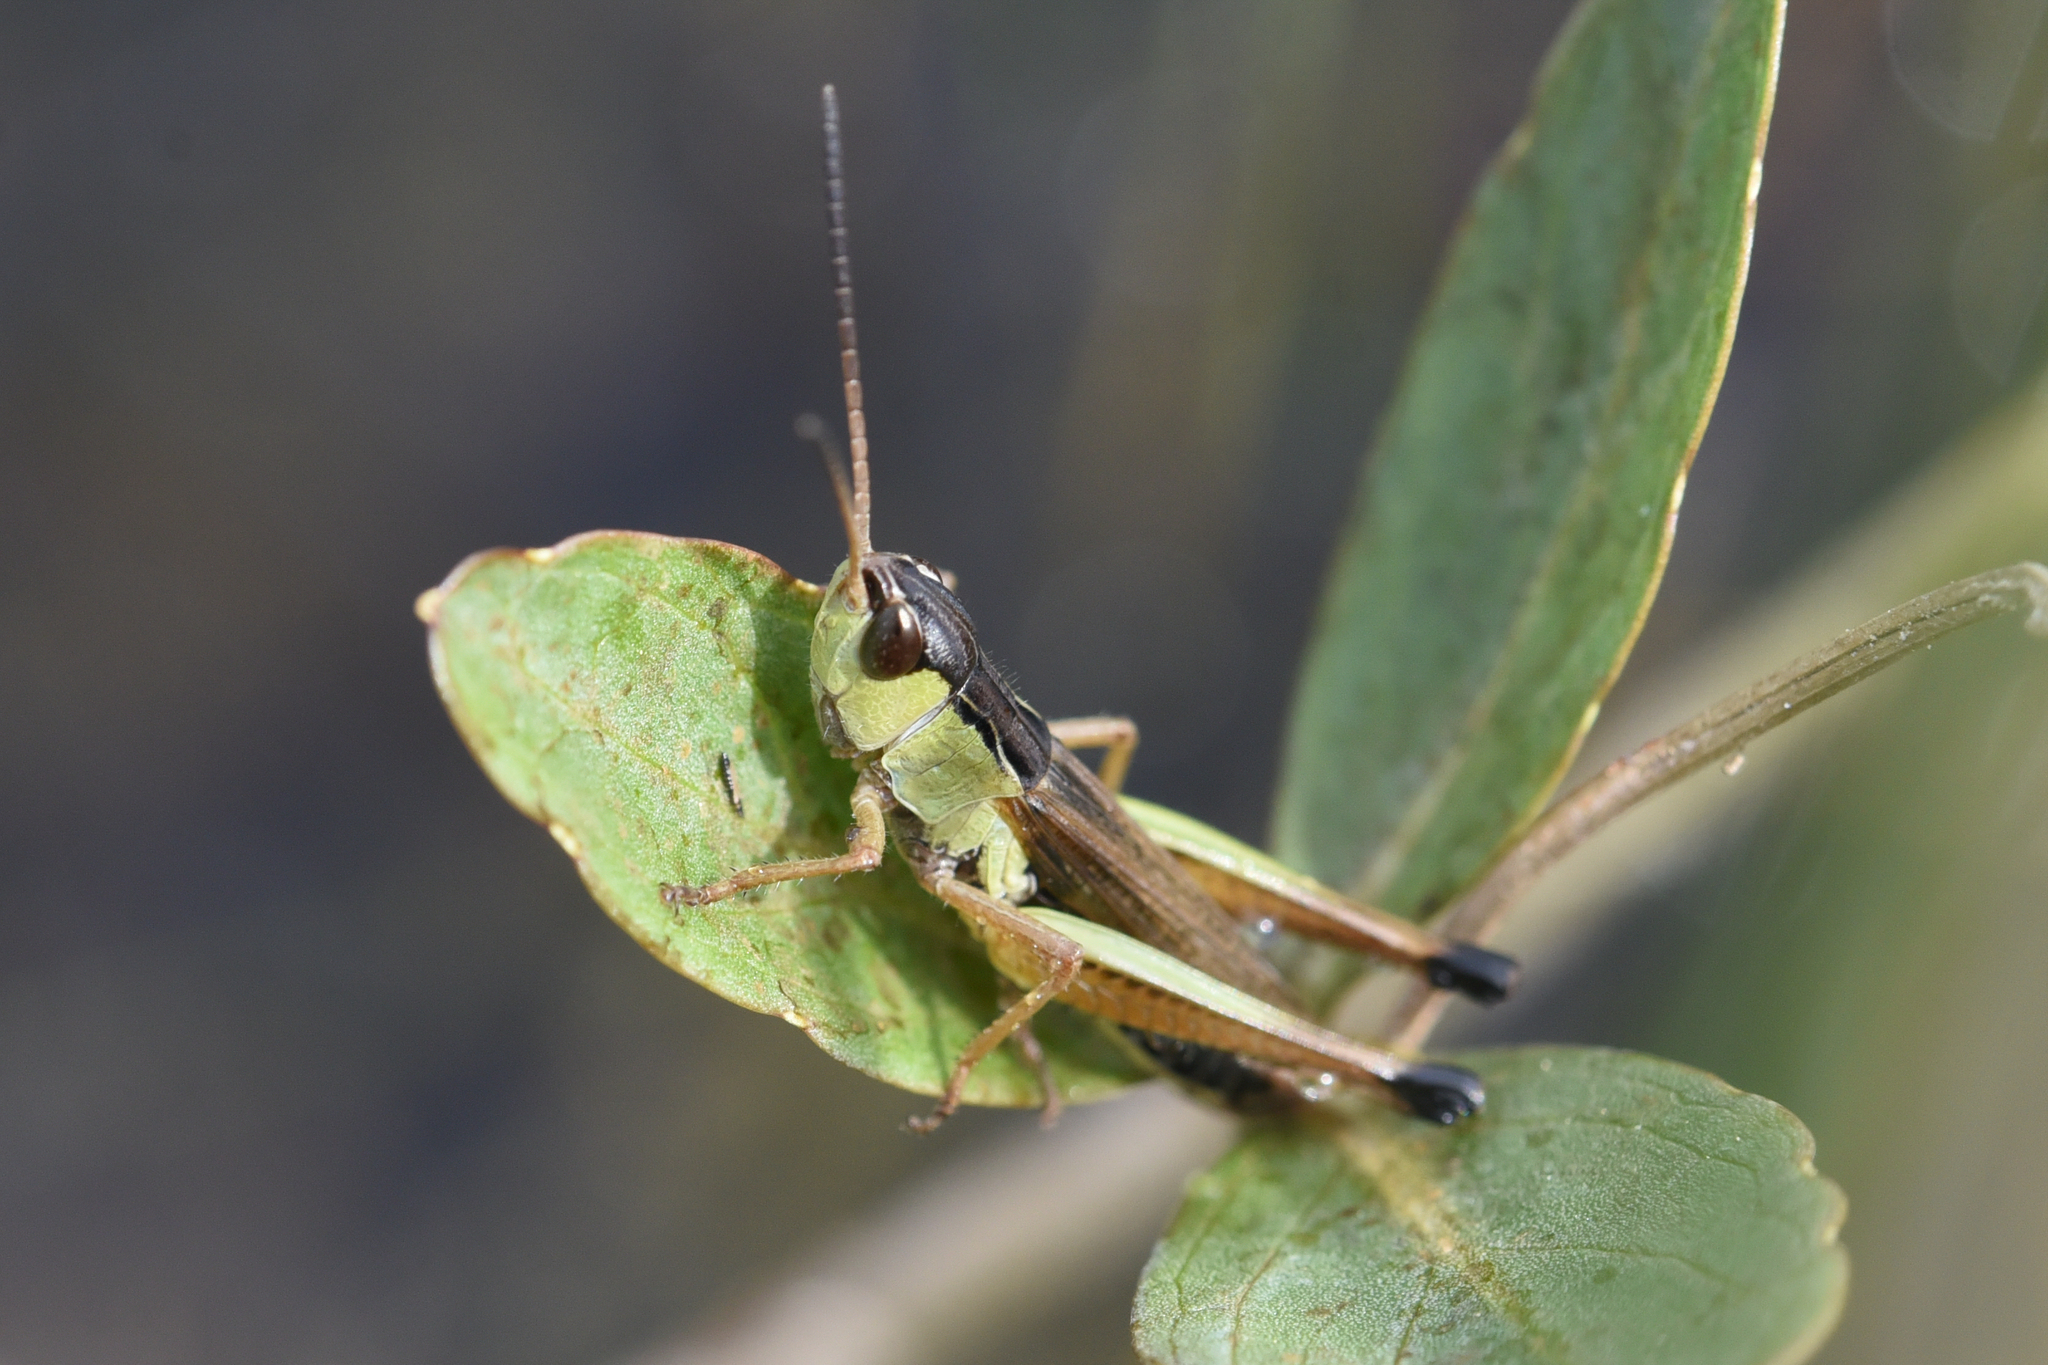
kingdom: Animalia
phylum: Arthropoda
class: Insecta
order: Orthoptera
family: Acrididae
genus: Pseudochorthippus
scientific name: Pseudochorthippus curtipennis
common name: Marsh meadow grasshopper
